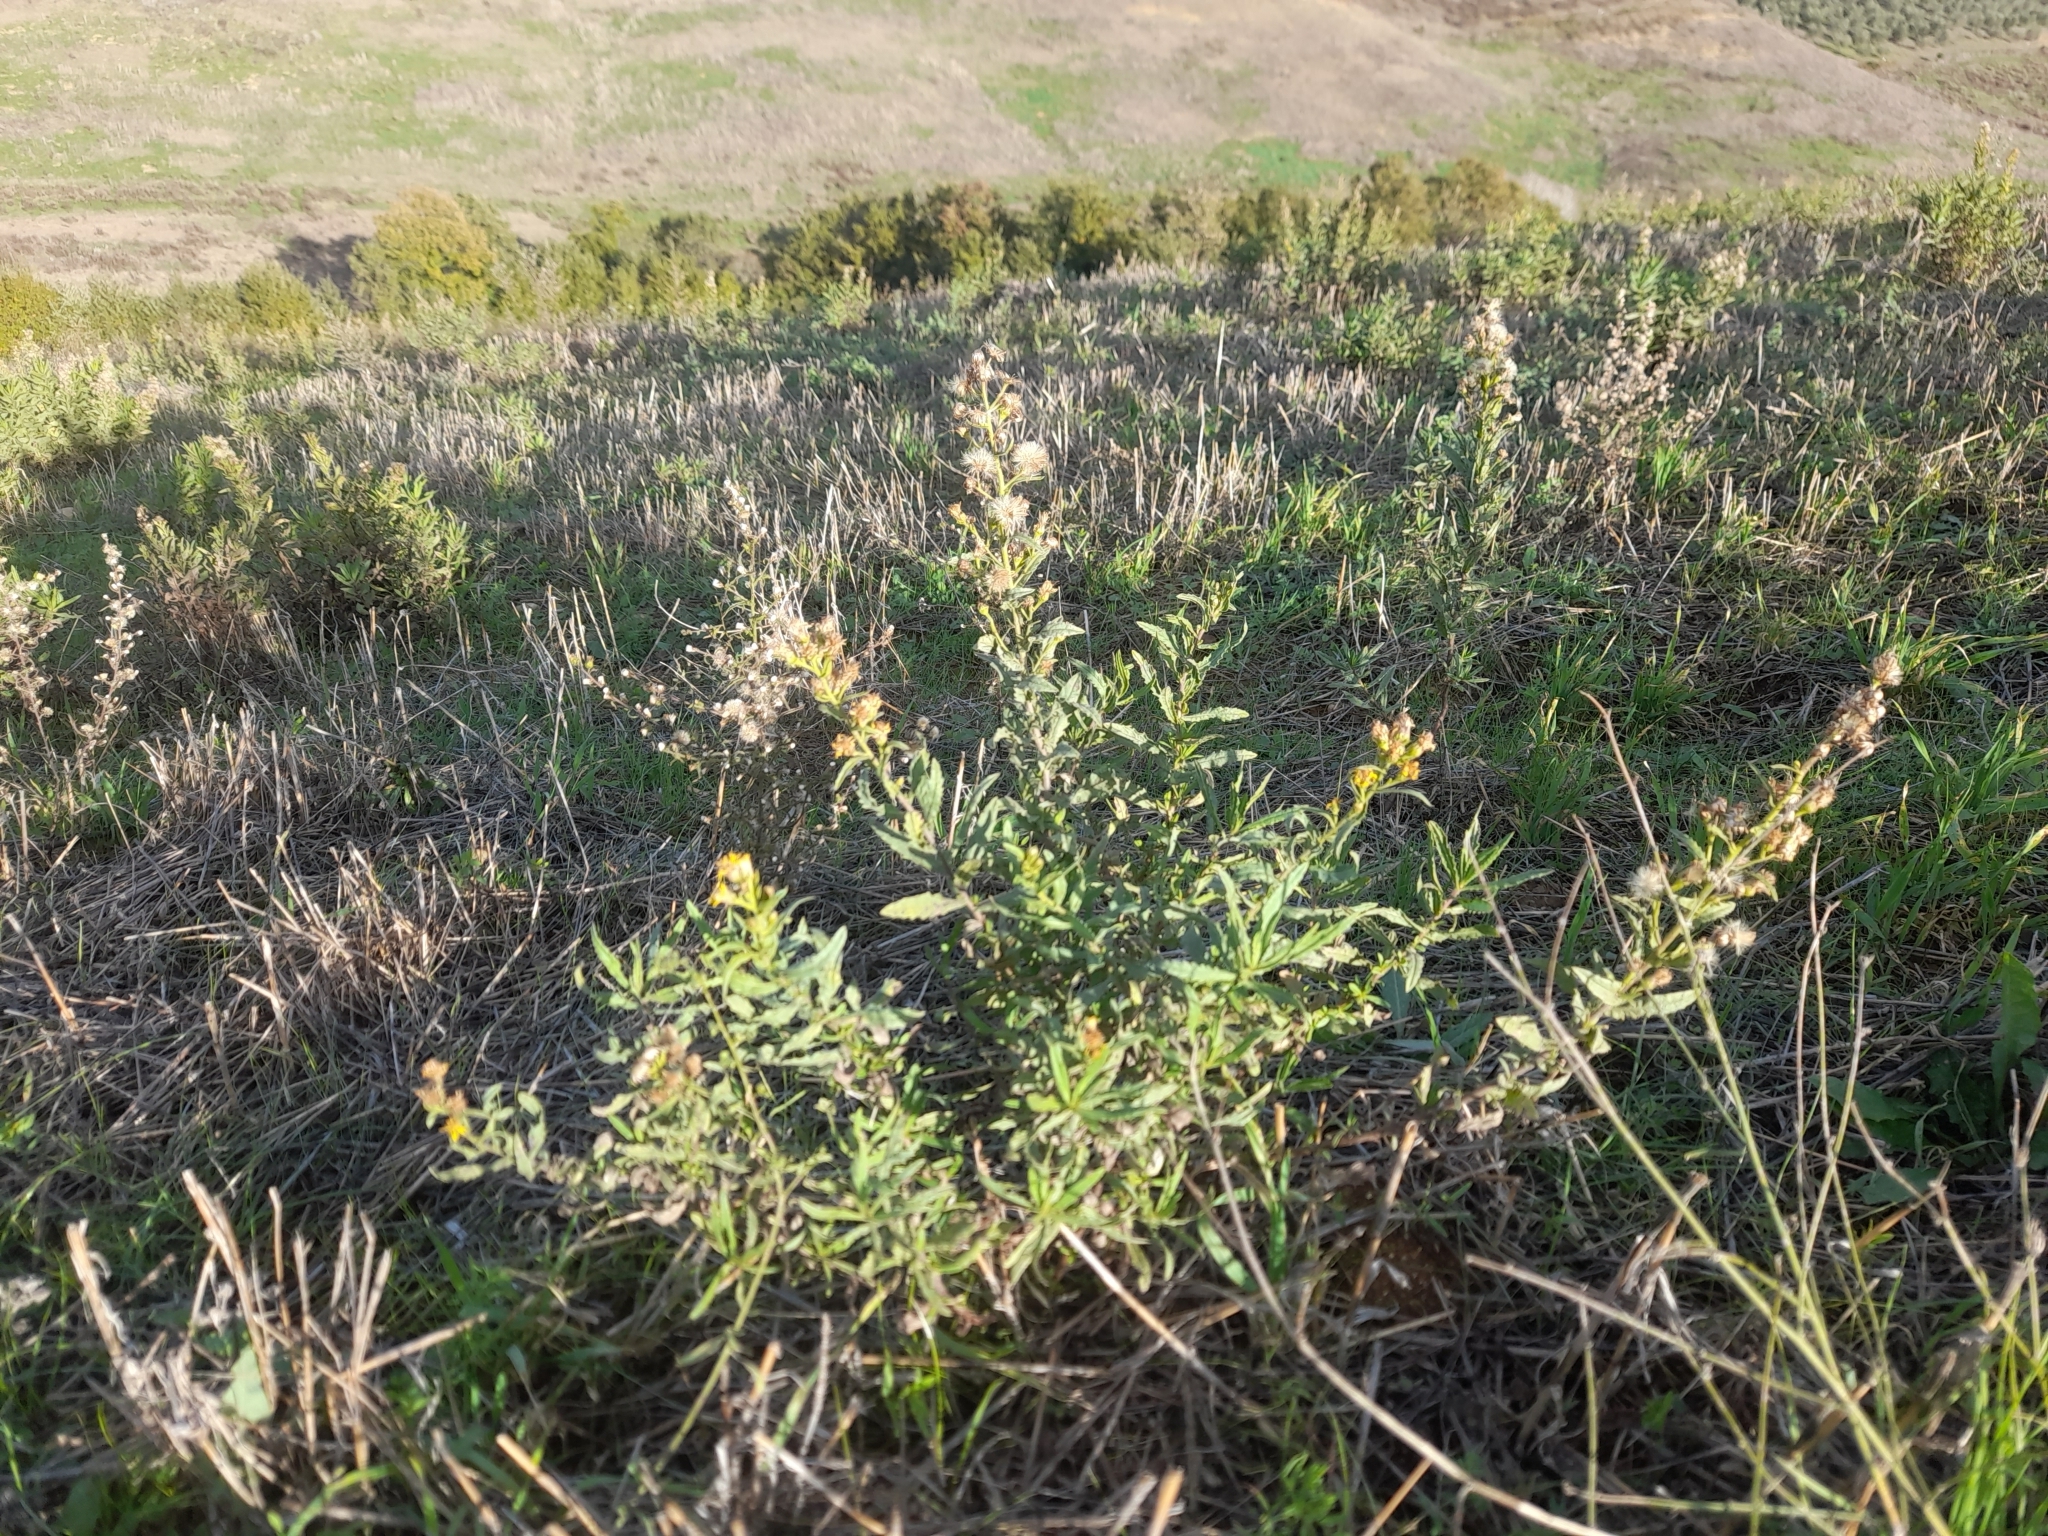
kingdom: Plantae
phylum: Tracheophyta
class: Magnoliopsida
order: Asterales
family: Asteraceae
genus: Dittrichia
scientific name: Dittrichia viscosa
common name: Woody fleabane
